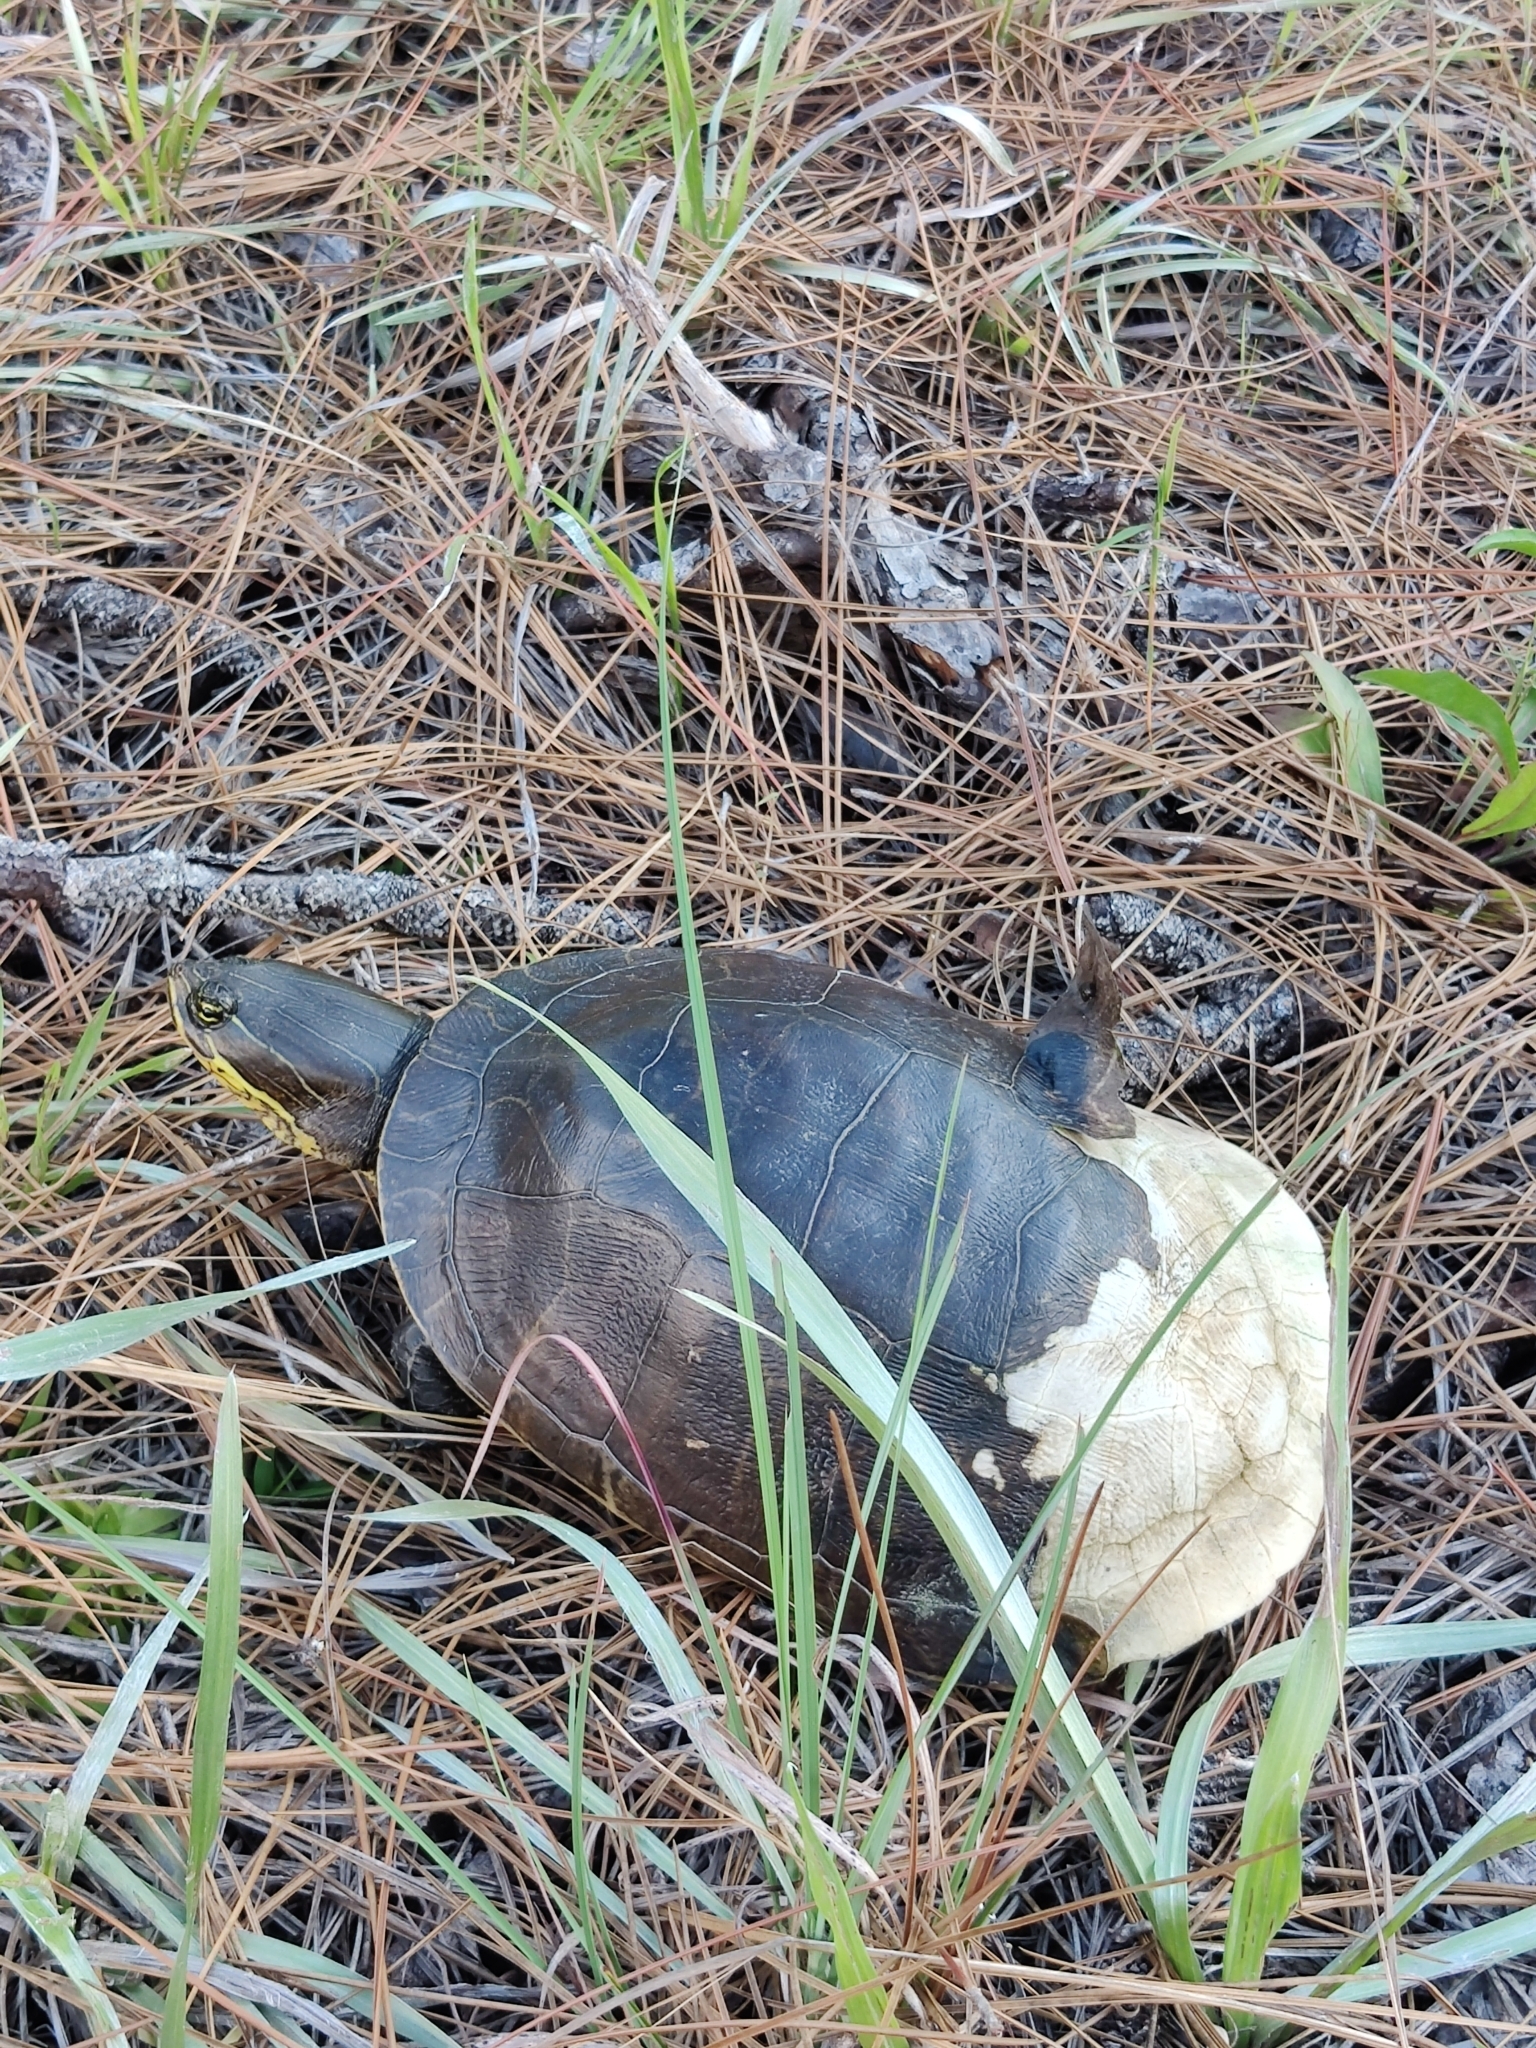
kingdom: Animalia
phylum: Chordata
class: Testudines
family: Emydidae
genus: Deirochelys
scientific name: Deirochelys reticularia
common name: Chicken turtle
